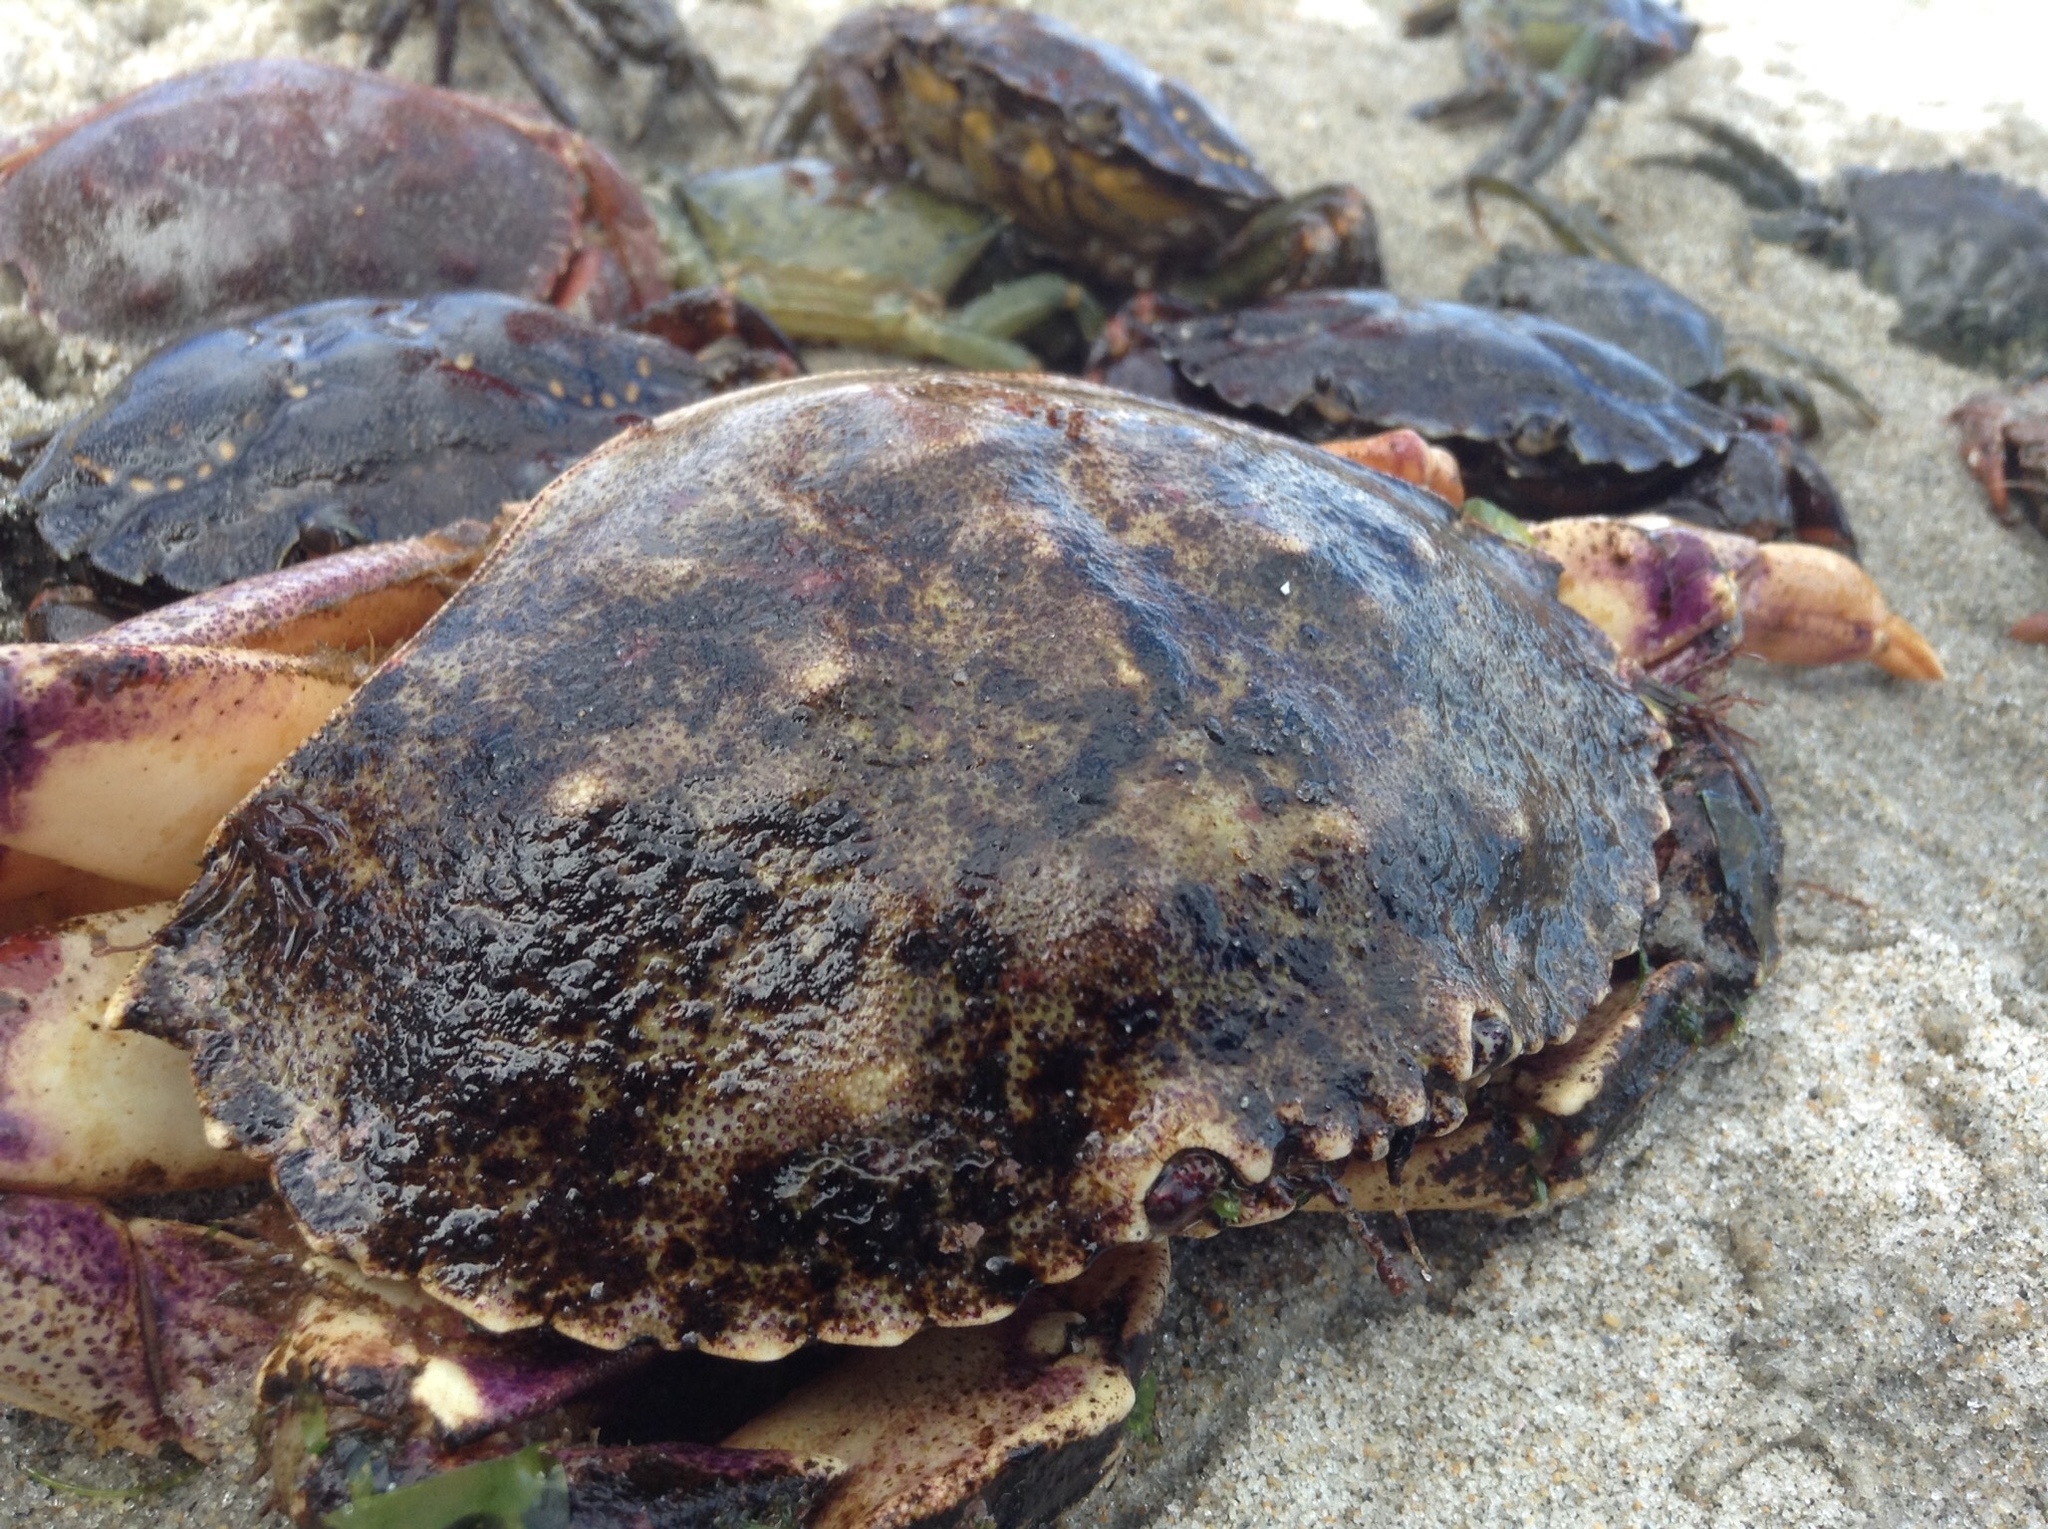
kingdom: Animalia
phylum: Arthropoda
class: Malacostraca
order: Decapoda
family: Cancridae
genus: Cancer
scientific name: Cancer irroratus
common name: Atlantic rock crab
